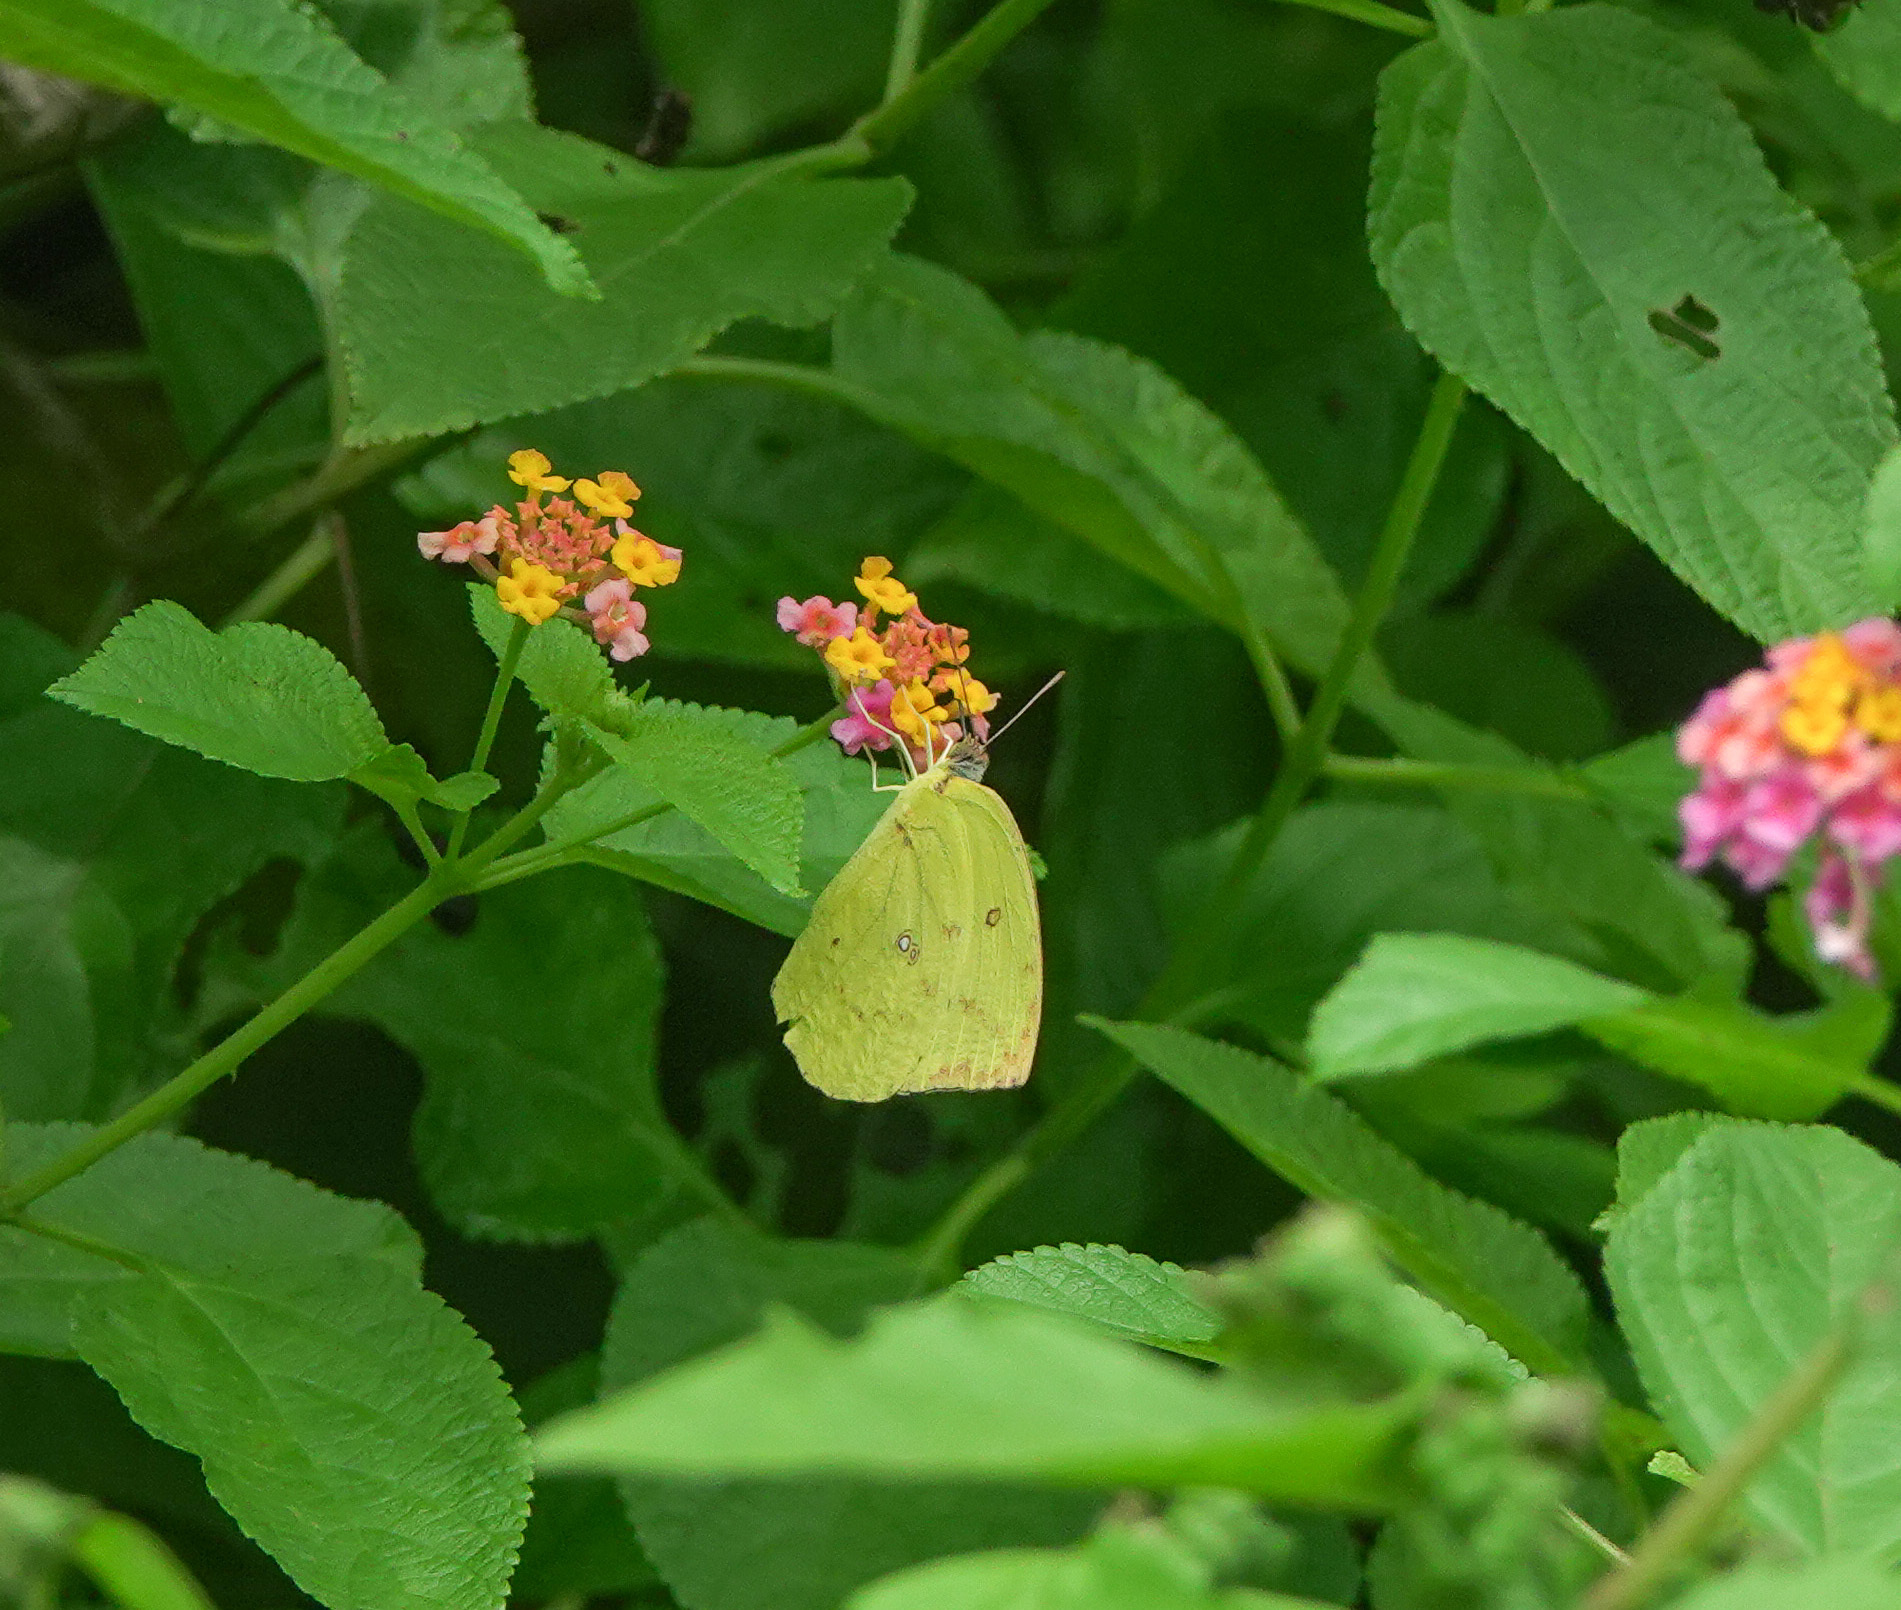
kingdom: Animalia
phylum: Arthropoda
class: Insecta
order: Lepidoptera
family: Pieridae
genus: Catopsilia
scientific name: Catopsilia pomona
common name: Common emigrant
